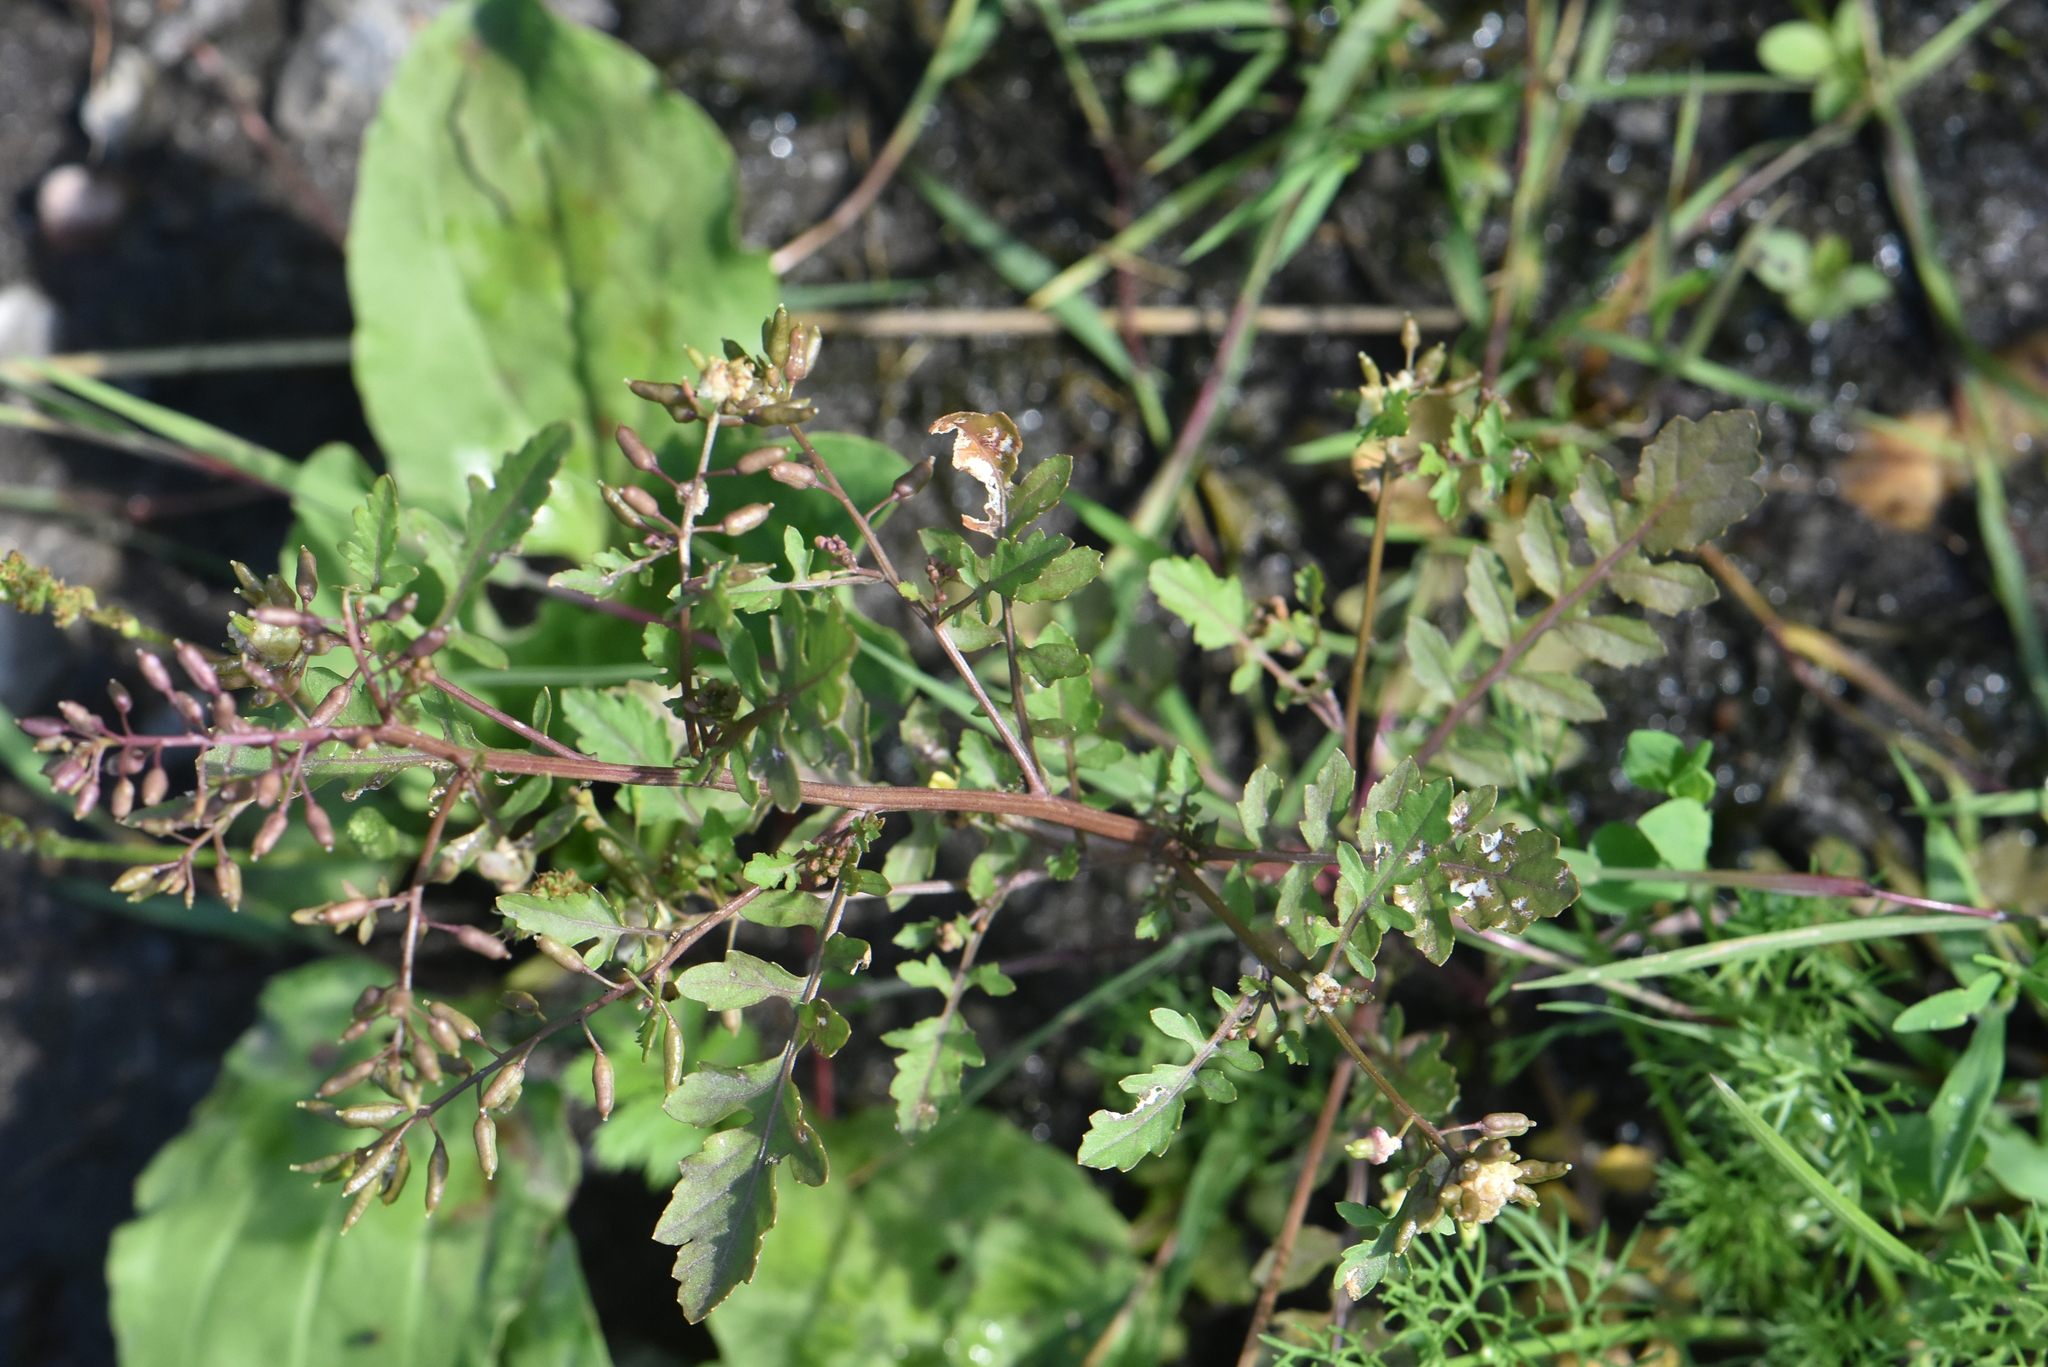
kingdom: Plantae
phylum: Tracheophyta
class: Magnoliopsida
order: Brassicales
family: Brassicaceae
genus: Rorippa
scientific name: Rorippa palustris
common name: Marsh yellow-cress
